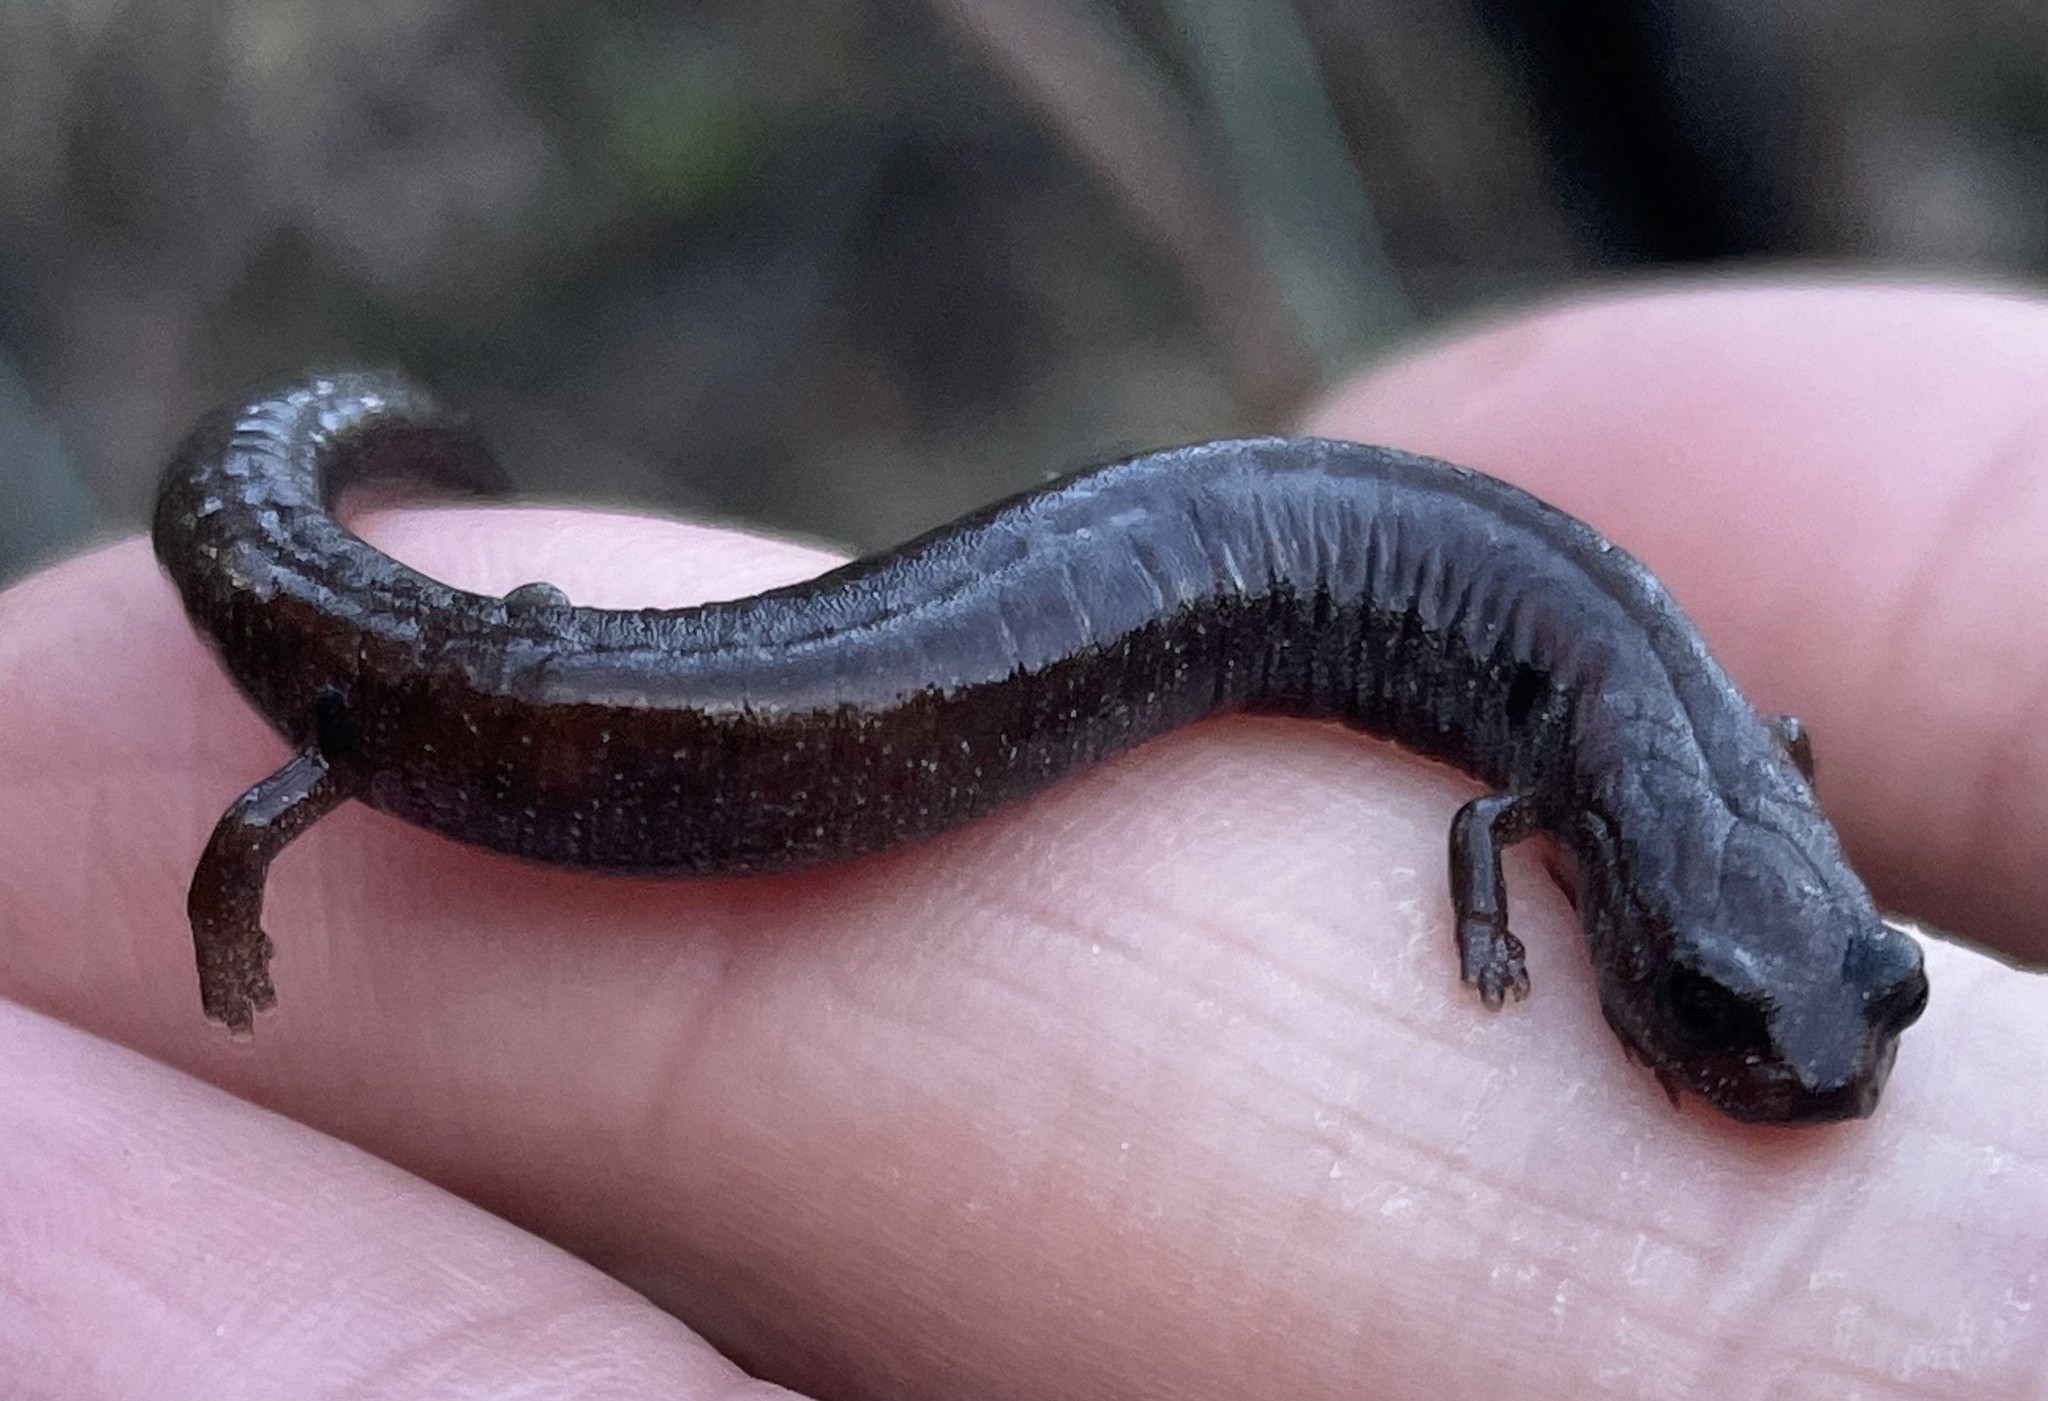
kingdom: Animalia
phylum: Chordata
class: Amphibia
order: Caudata
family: Plethodontidae
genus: Batrachoseps
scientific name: Batrachoseps major
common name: Garden slender salamander
